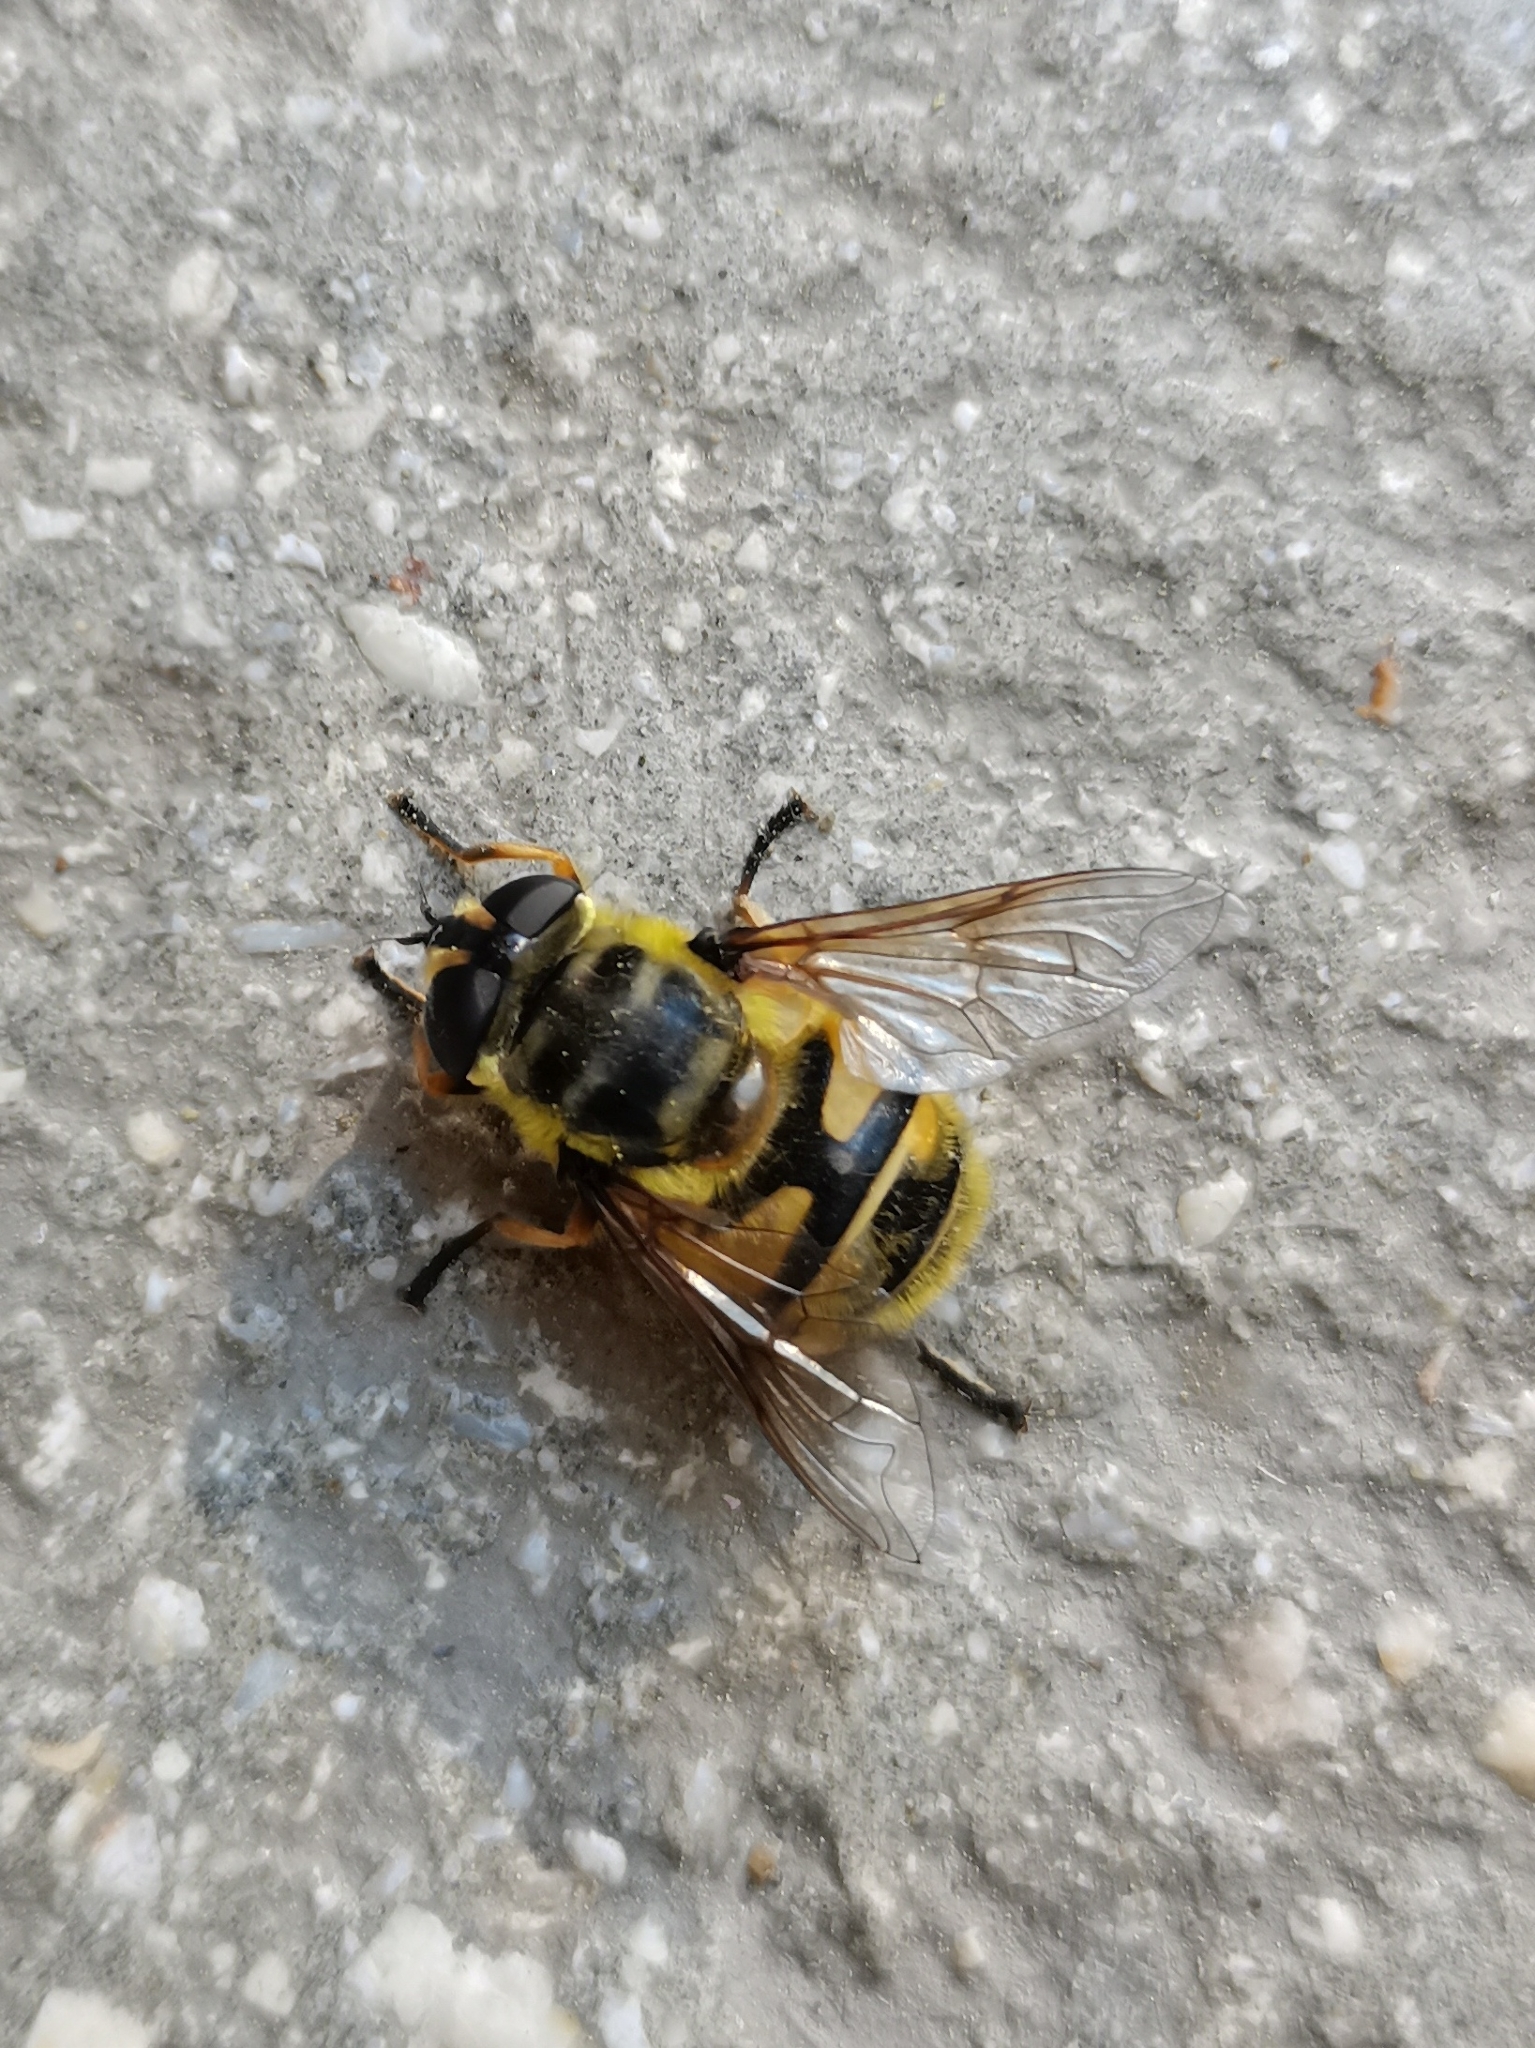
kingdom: Animalia
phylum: Arthropoda
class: Insecta
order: Diptera
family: Syrphidae
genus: Myathropa
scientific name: Myathropa florea
